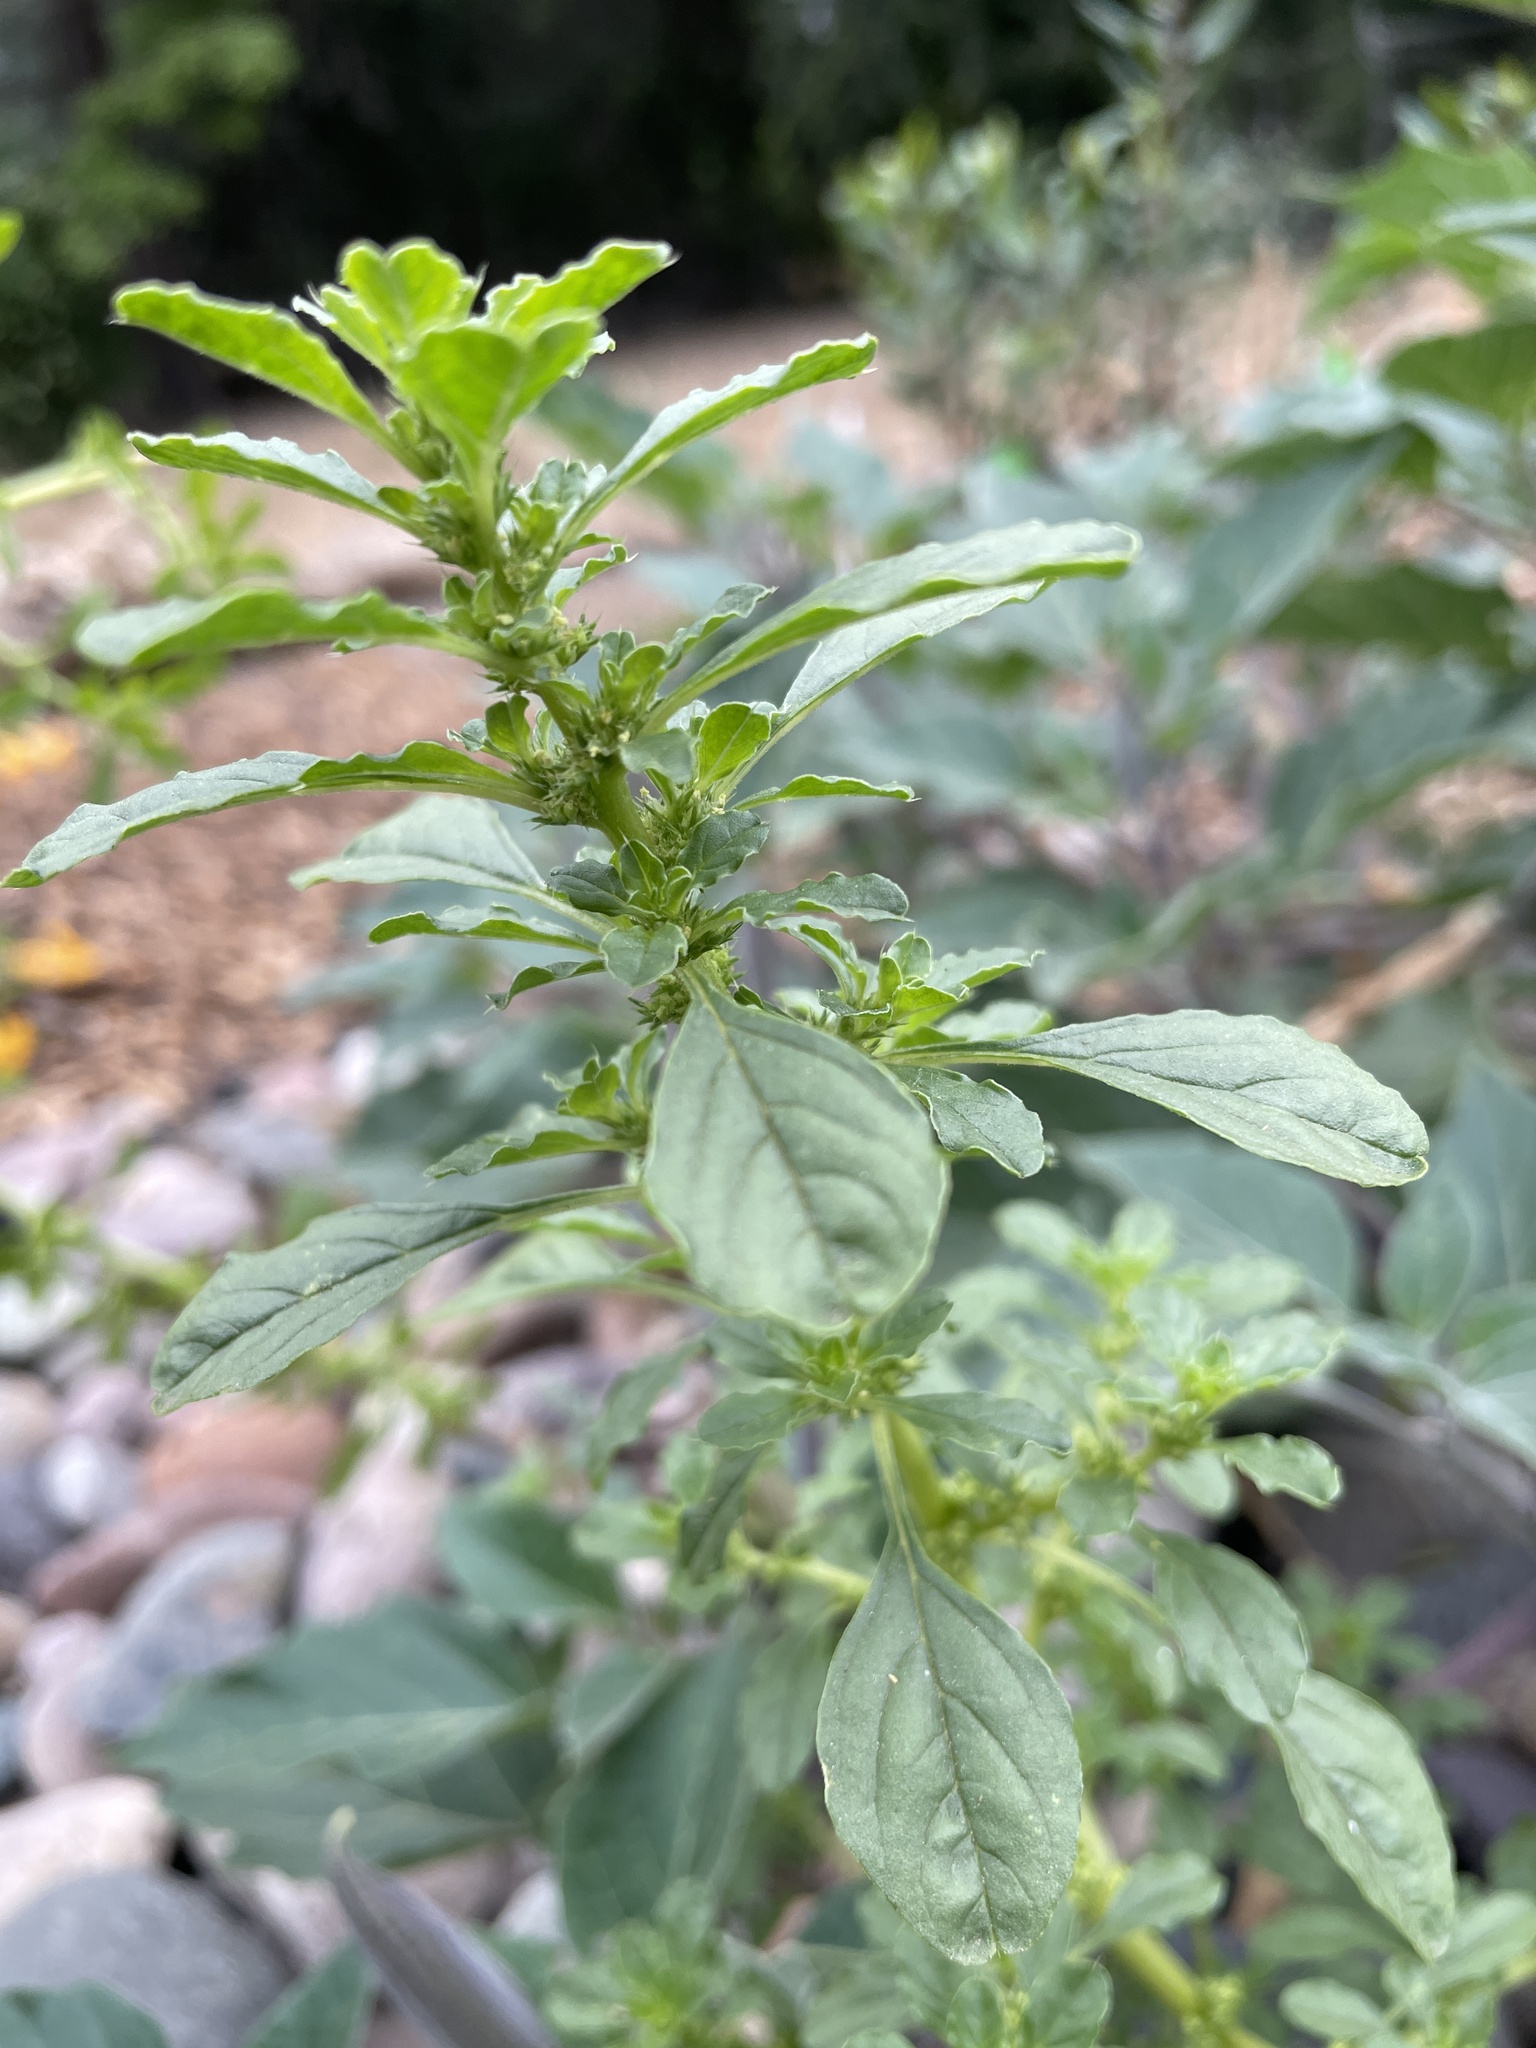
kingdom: Plantae
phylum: Tracheophyta
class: Magnoliopsida
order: Caryophyllales
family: Amaranthaceae
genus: Amaranthus
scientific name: Amaranthus albus
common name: White pigweed
